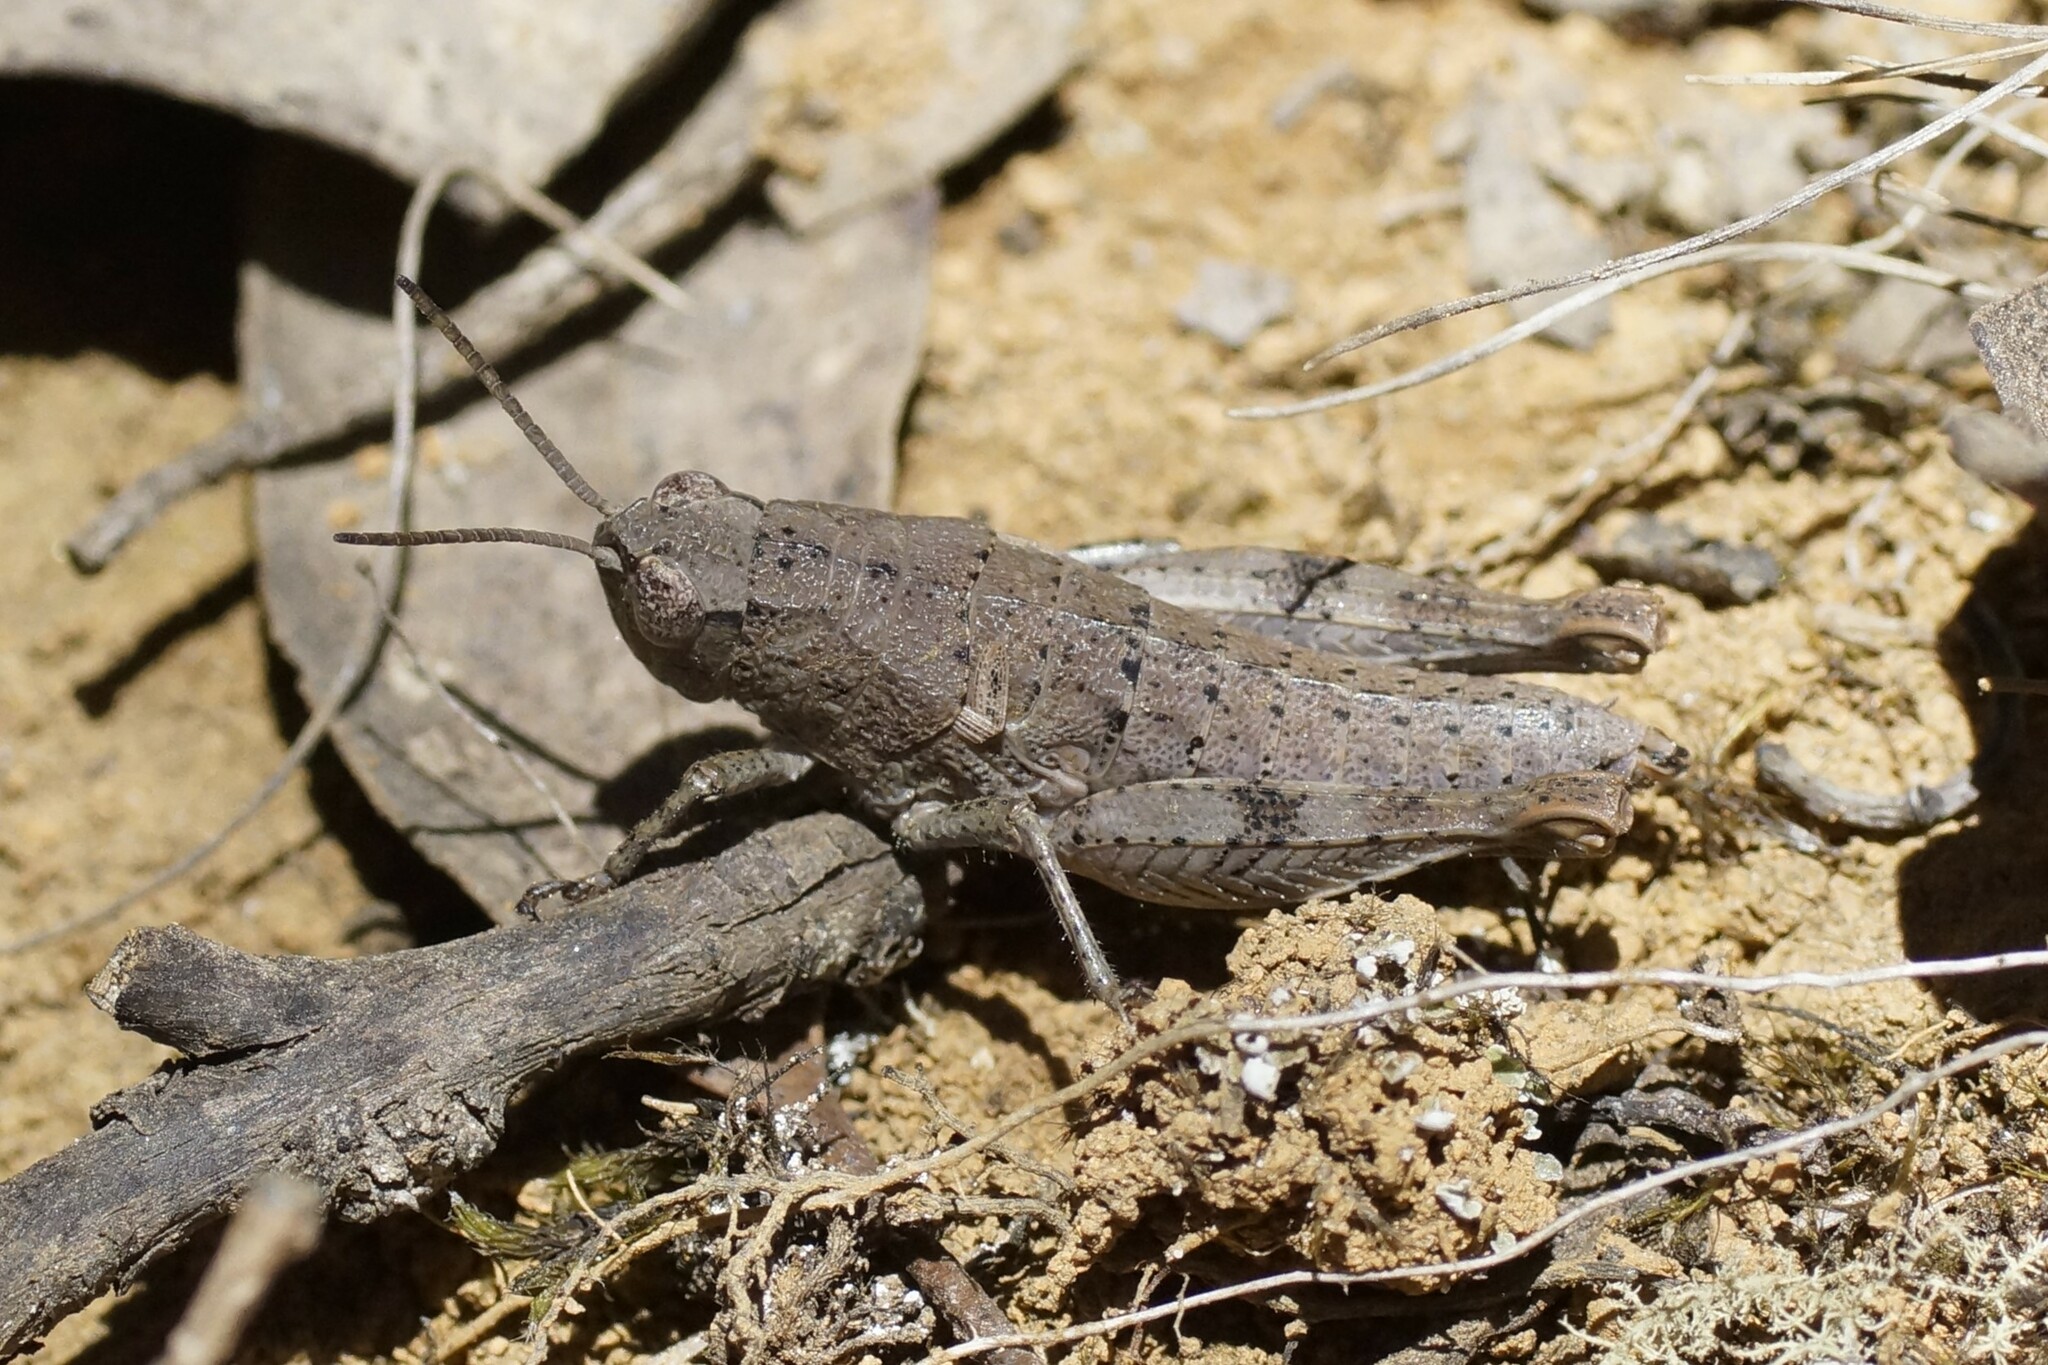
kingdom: Animalia
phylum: Arthropoda
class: Insecta
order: Orthoptera
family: Acrididae
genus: Tasmaniacris
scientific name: Tasmaniacris tasmaniensis
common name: Tasmanian grasshopper
